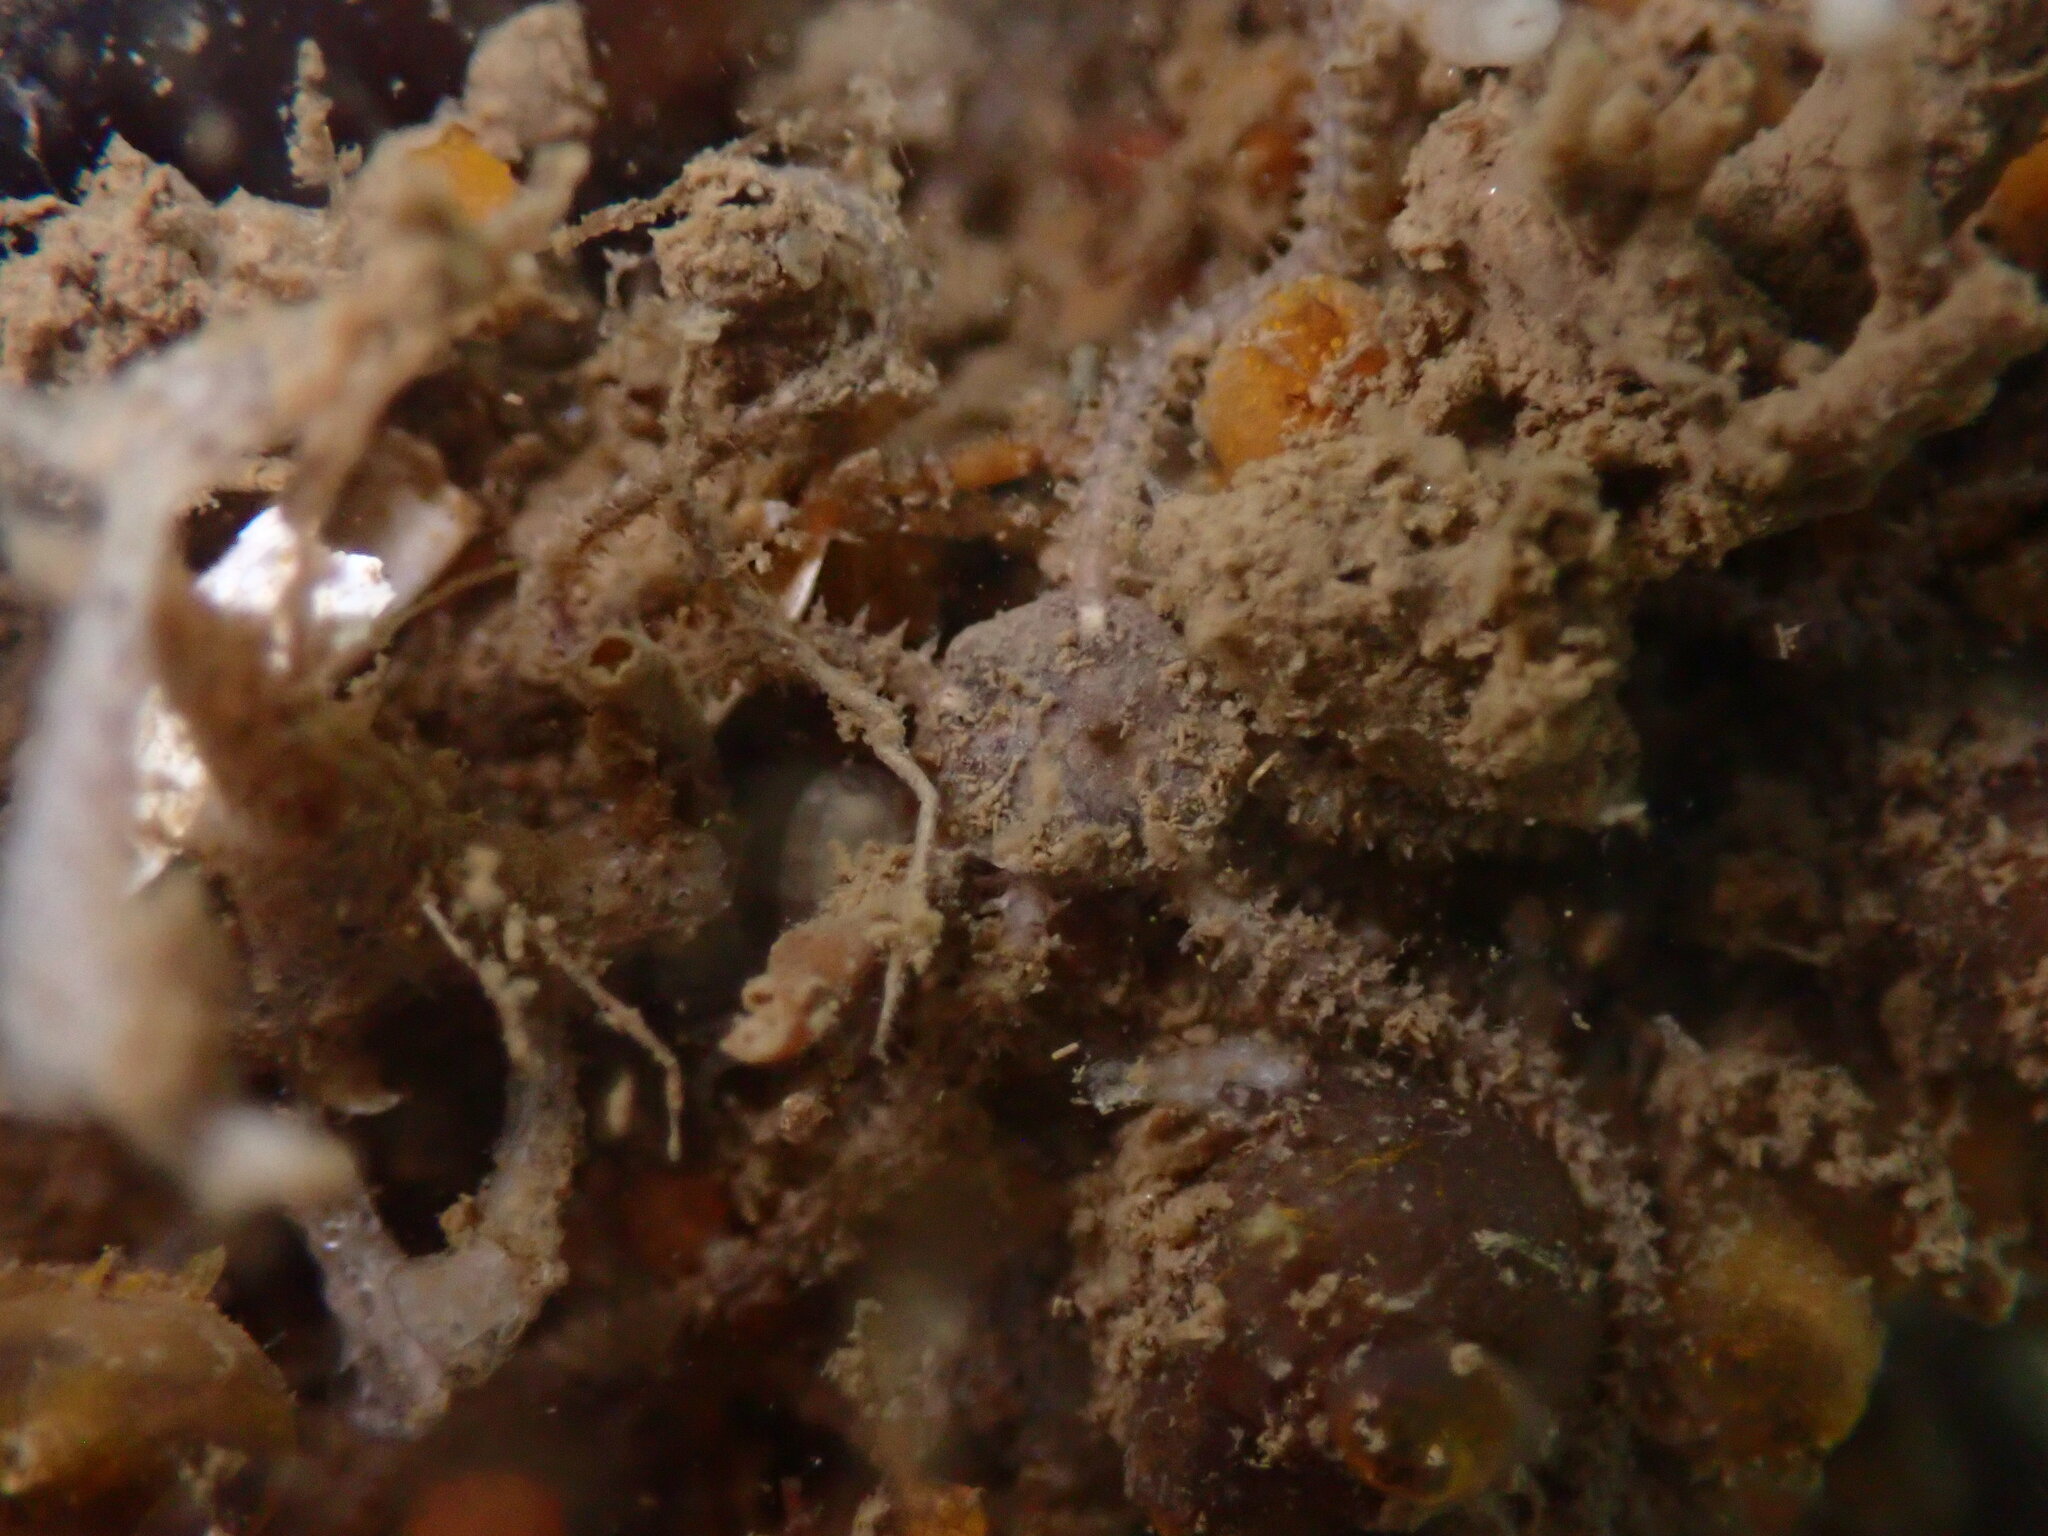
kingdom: Animalia
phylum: Echinodermata
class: Ophiuroidea
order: Amphilepidida
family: Amphiuridae
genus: Amphipholis
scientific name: Amphipholis squamata
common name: Brooding snake star
